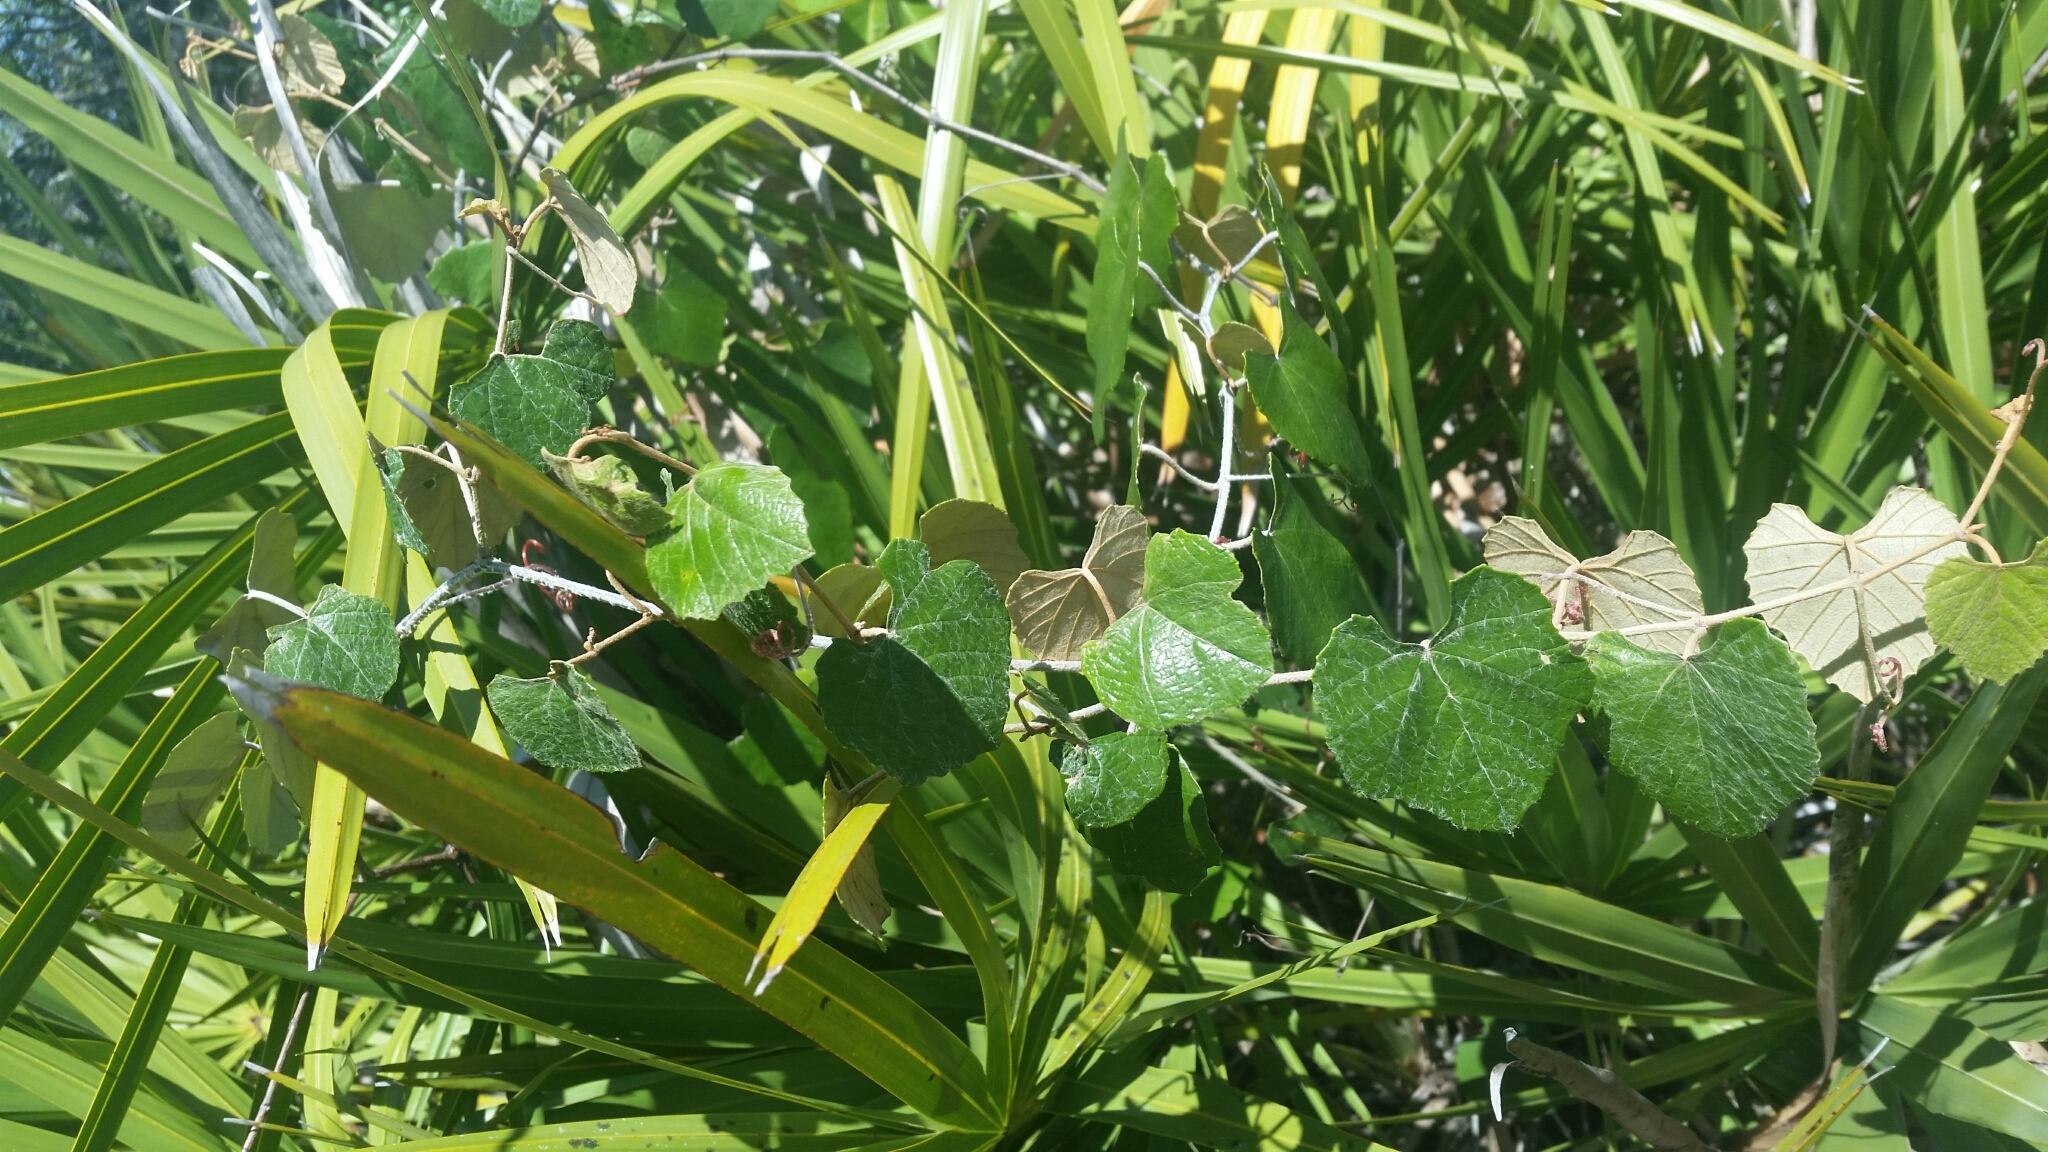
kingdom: Plantae
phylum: Tracheophyta
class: Magnoliopsida
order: Vitales
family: Vitaceae
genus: Vitis
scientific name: Vitis shuttleworthii
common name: Caloosa grape
